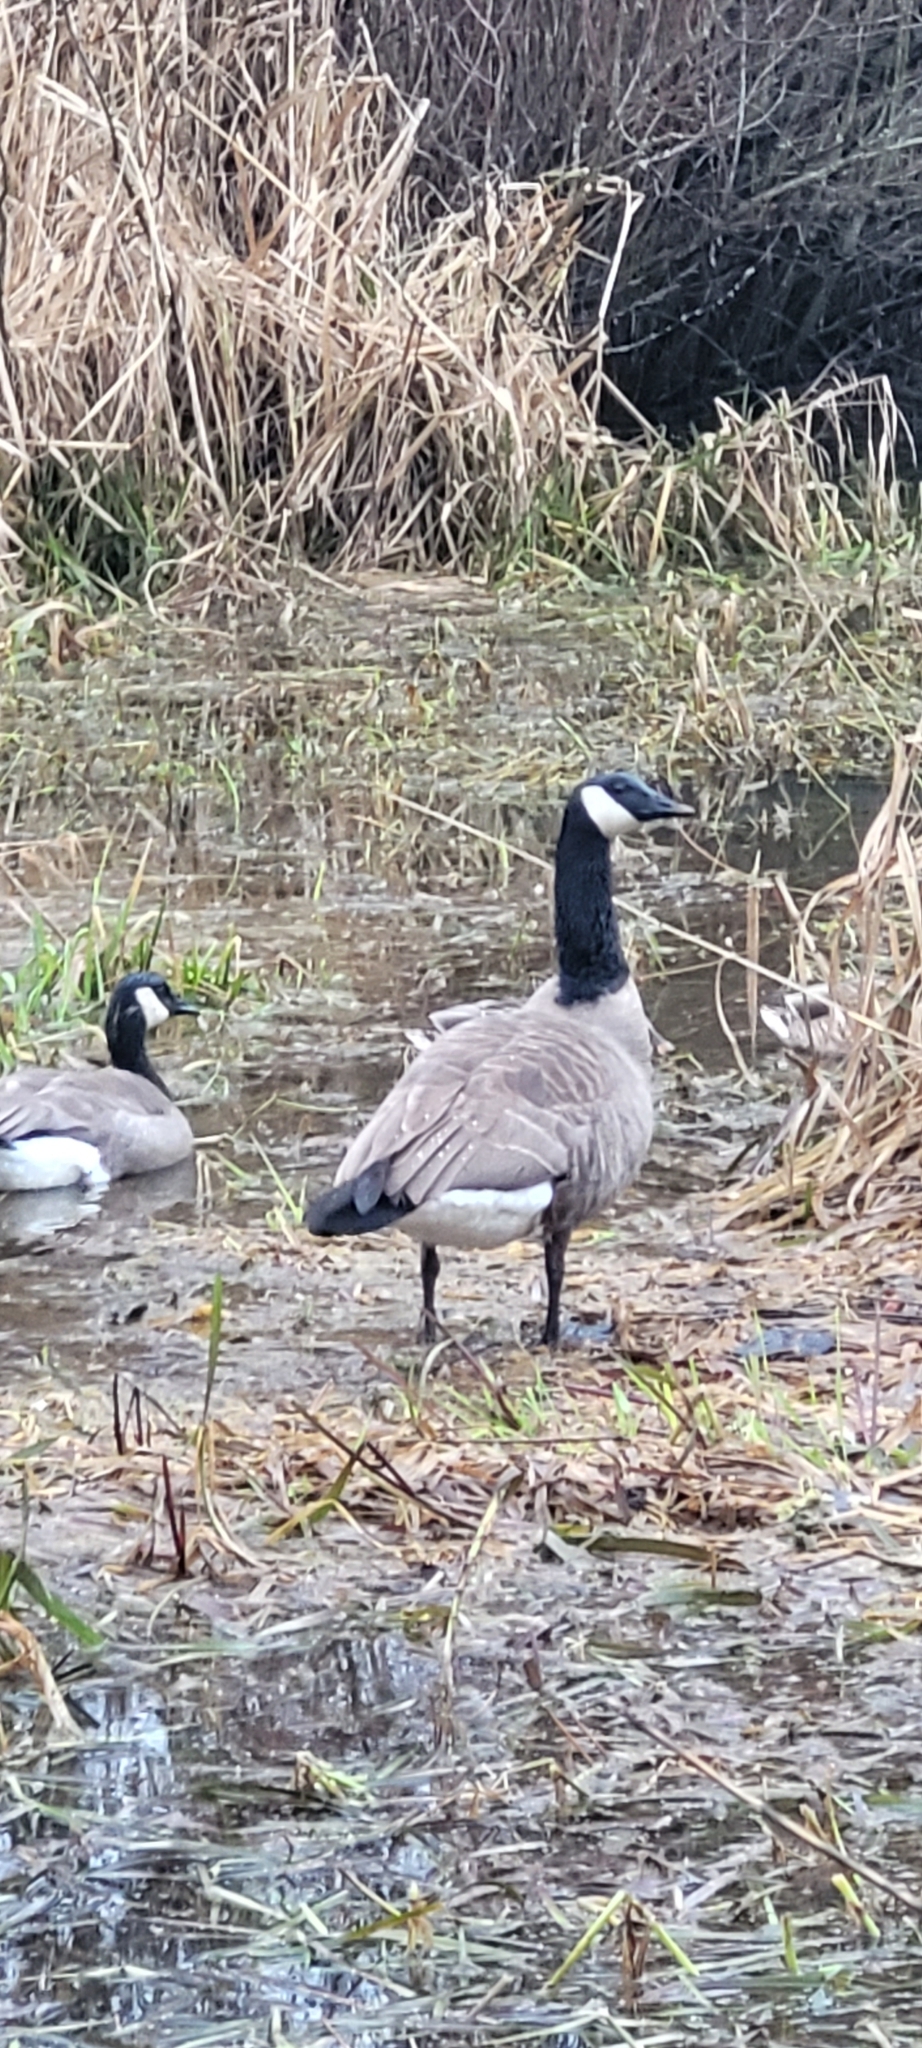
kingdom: Animalia
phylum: Chordata
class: Aves
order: Anseriformes
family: Anatidae
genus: Branta
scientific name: Branta canadensis
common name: Canada goose
